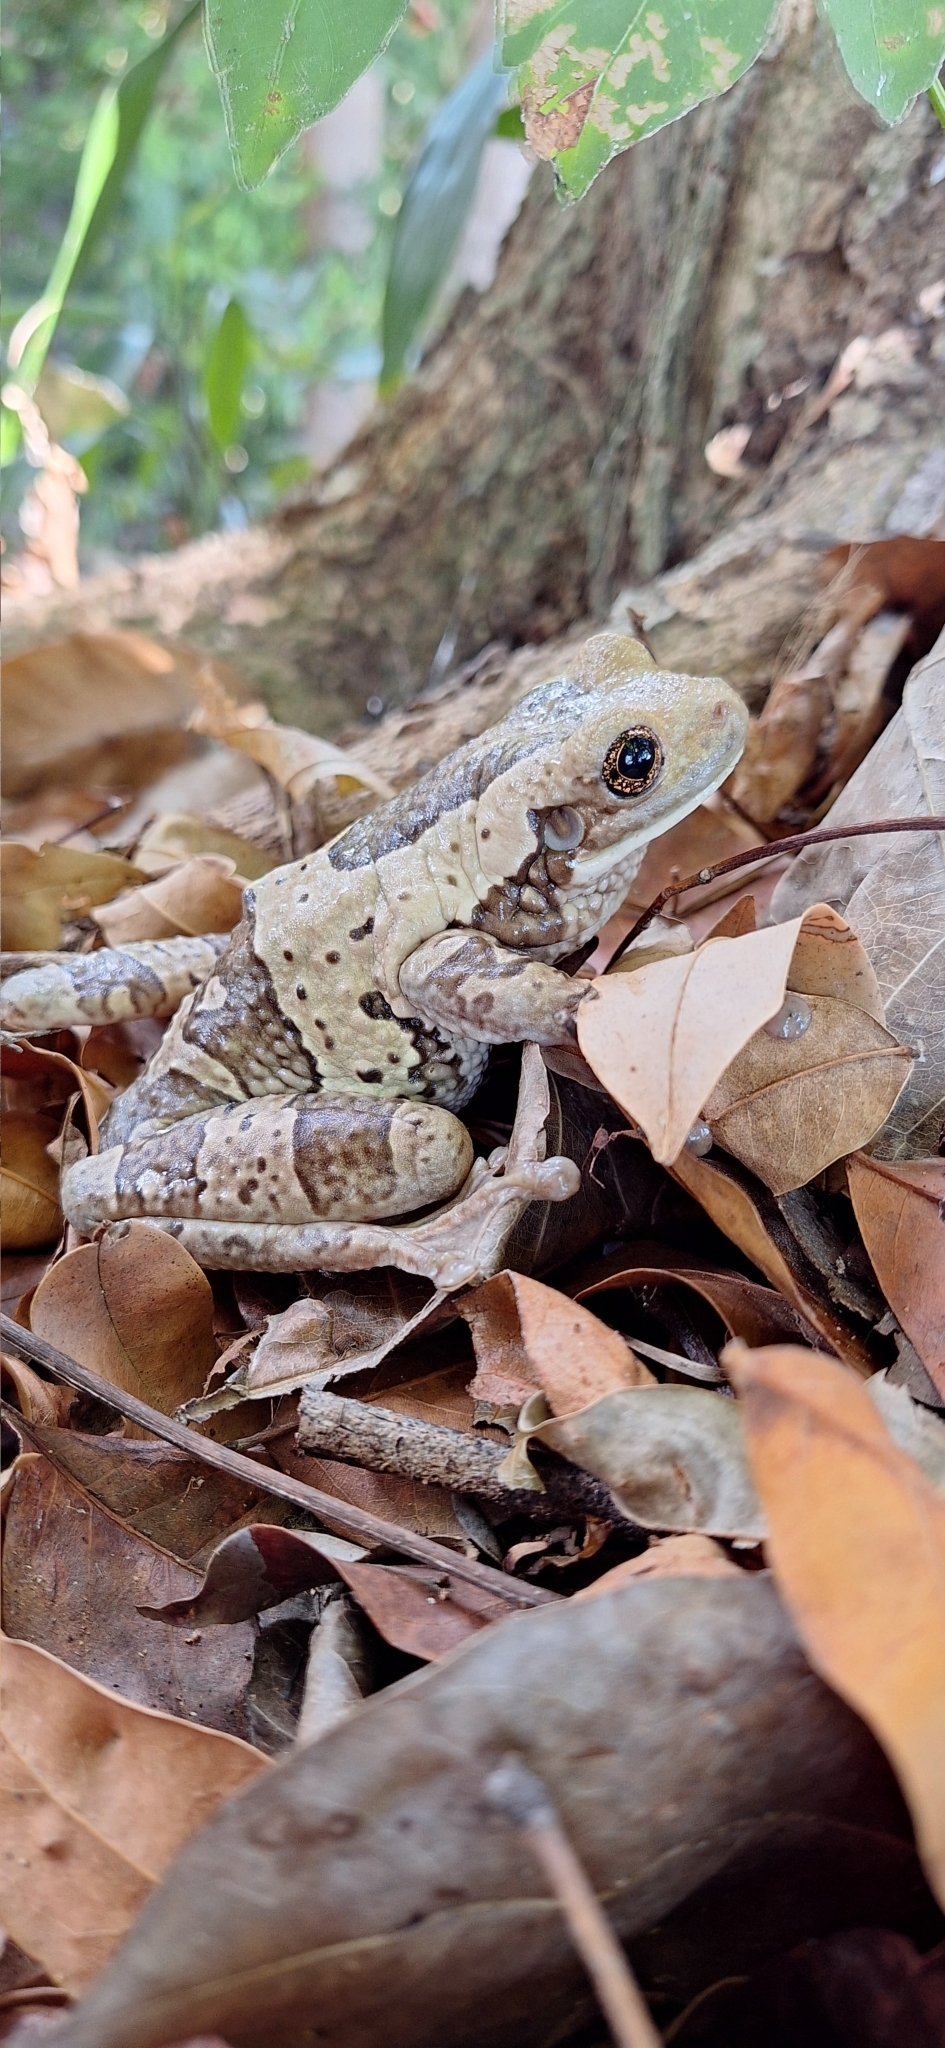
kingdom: Animalia
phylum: Chordata
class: Amphibia
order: Anura
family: Hylidae
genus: Trachycephalus
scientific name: Trachycephalus vermiculatus
